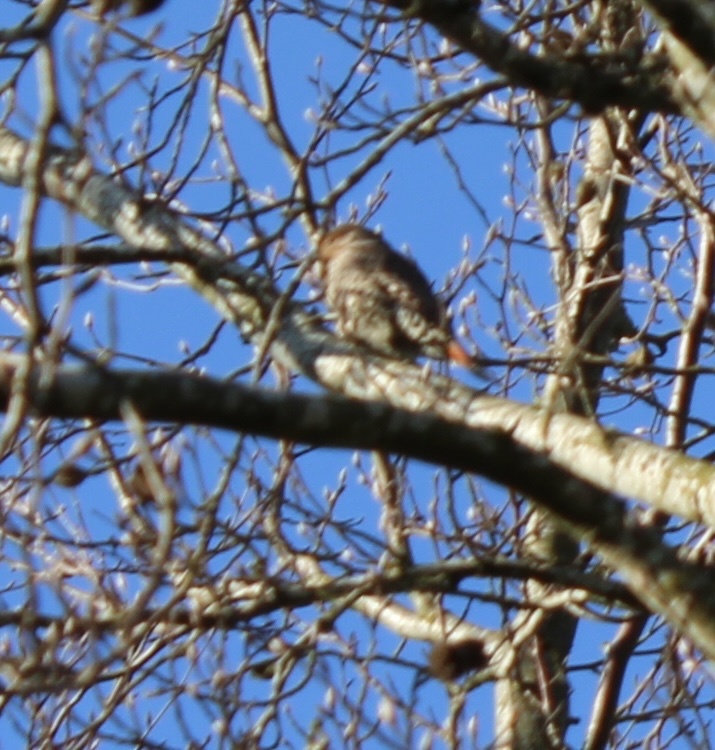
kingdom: Animalia
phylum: Chordata
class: Aves
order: Piciformes
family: Picidae
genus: Colaptes
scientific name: Colaptes auratus
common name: Northern flicker
